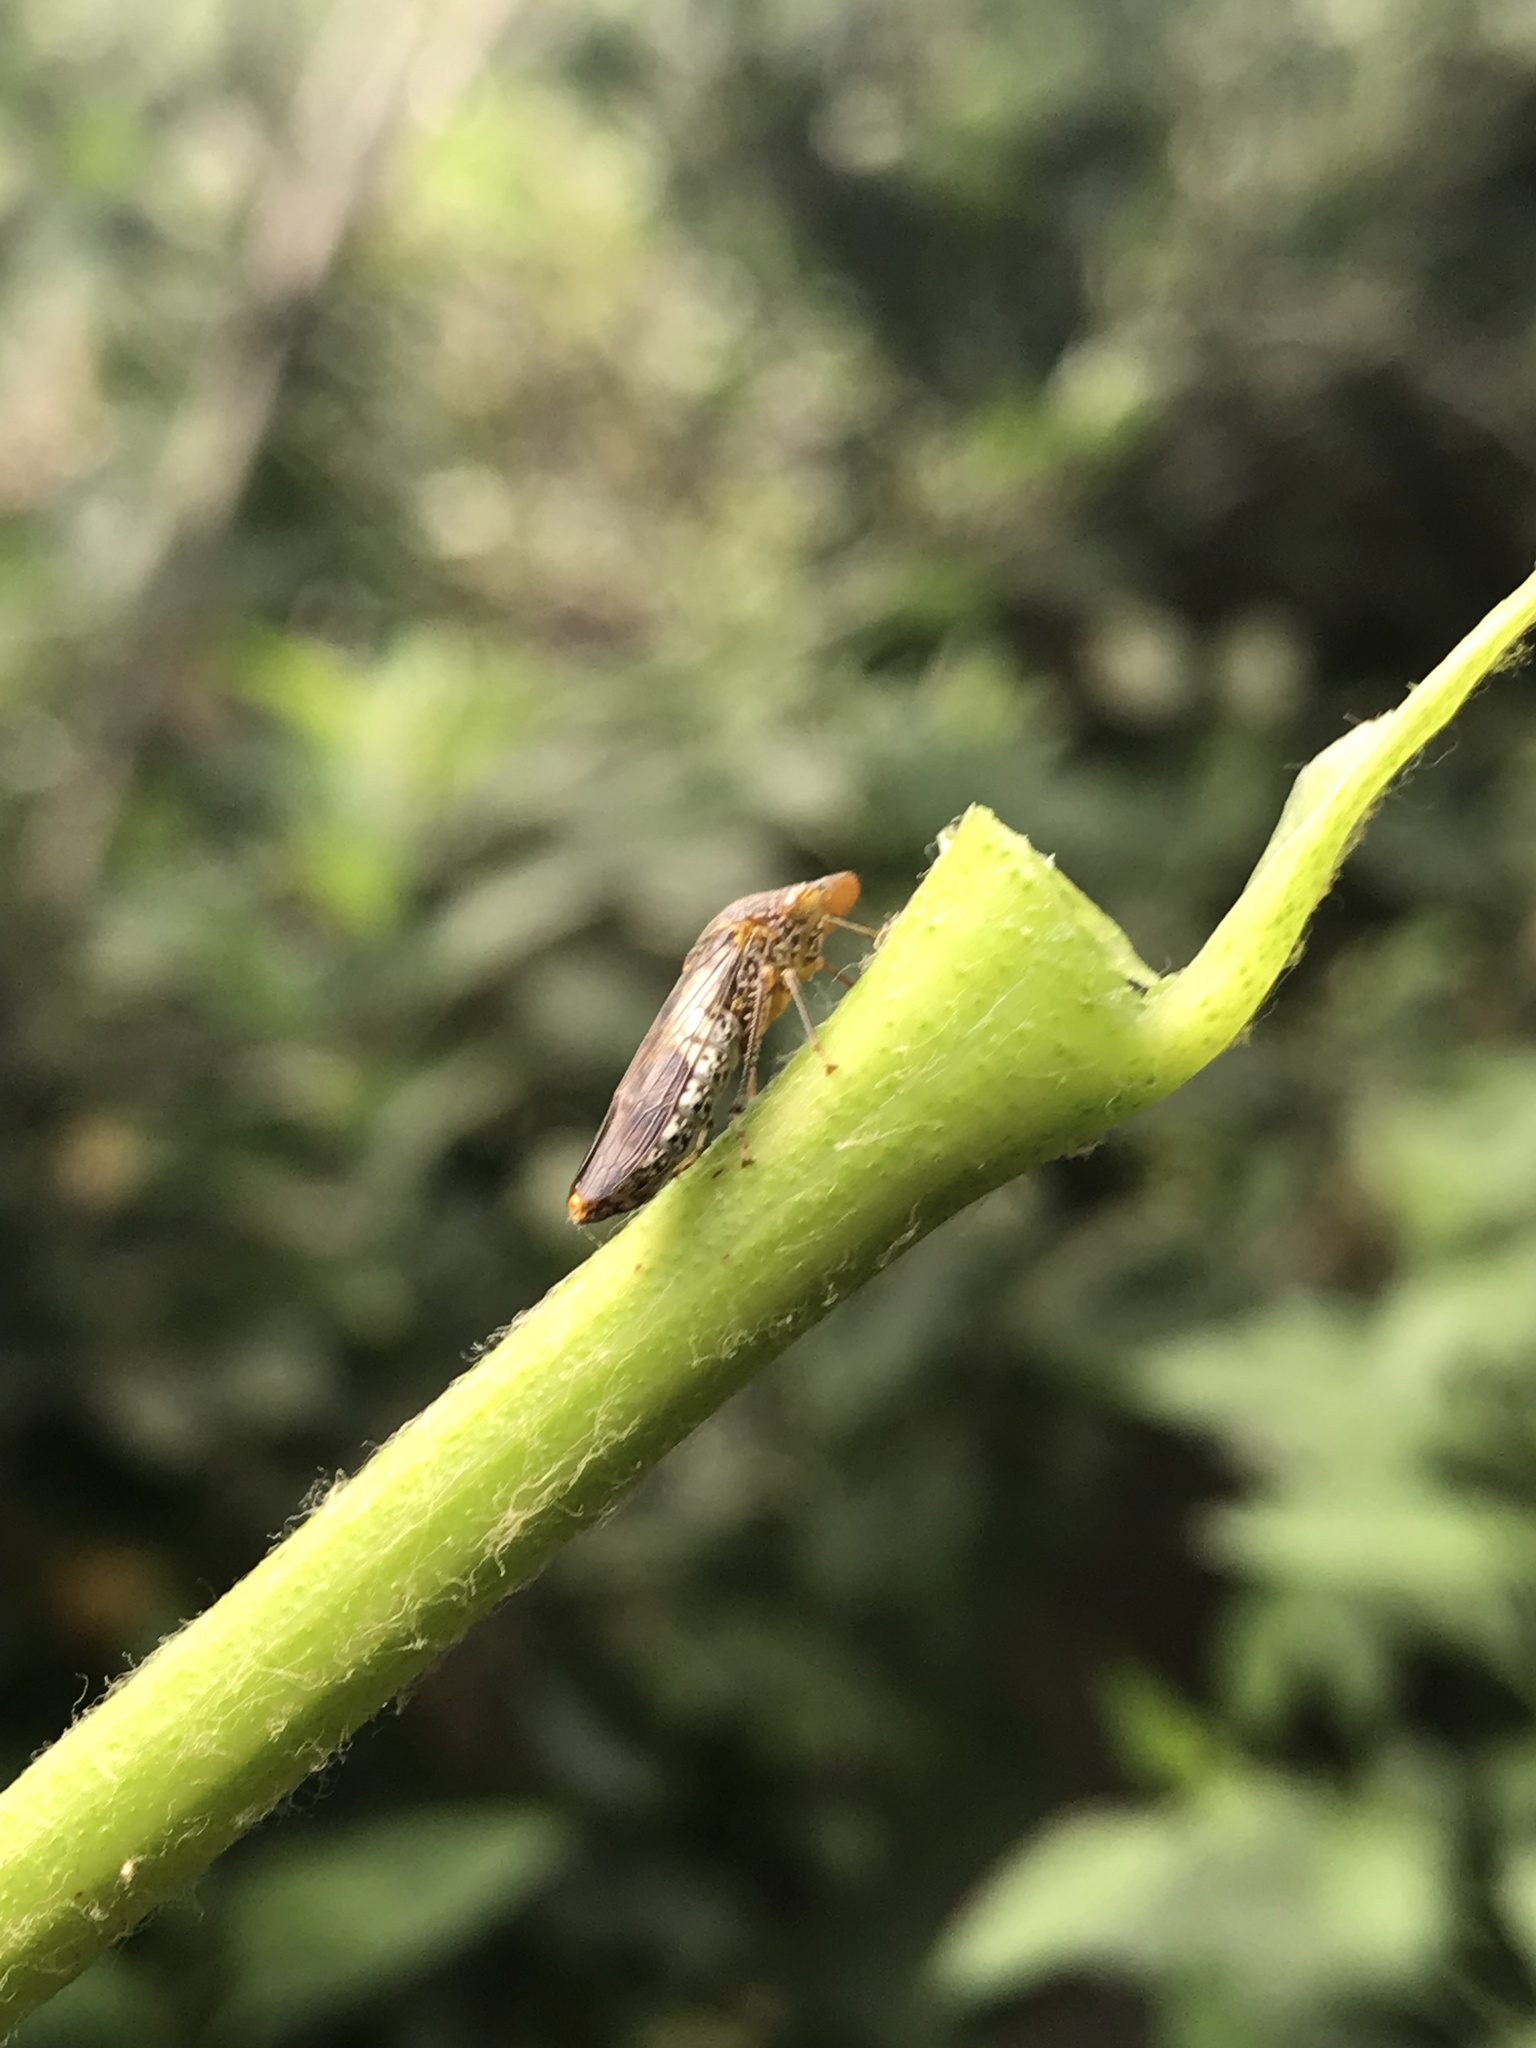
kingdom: Animalia
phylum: Arthropoda
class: Insecta
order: Hemiptera
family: Cicadellidae
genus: Homalodisca
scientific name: Homalodisca vitripennis
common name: Glassy-winged sharpshooter
